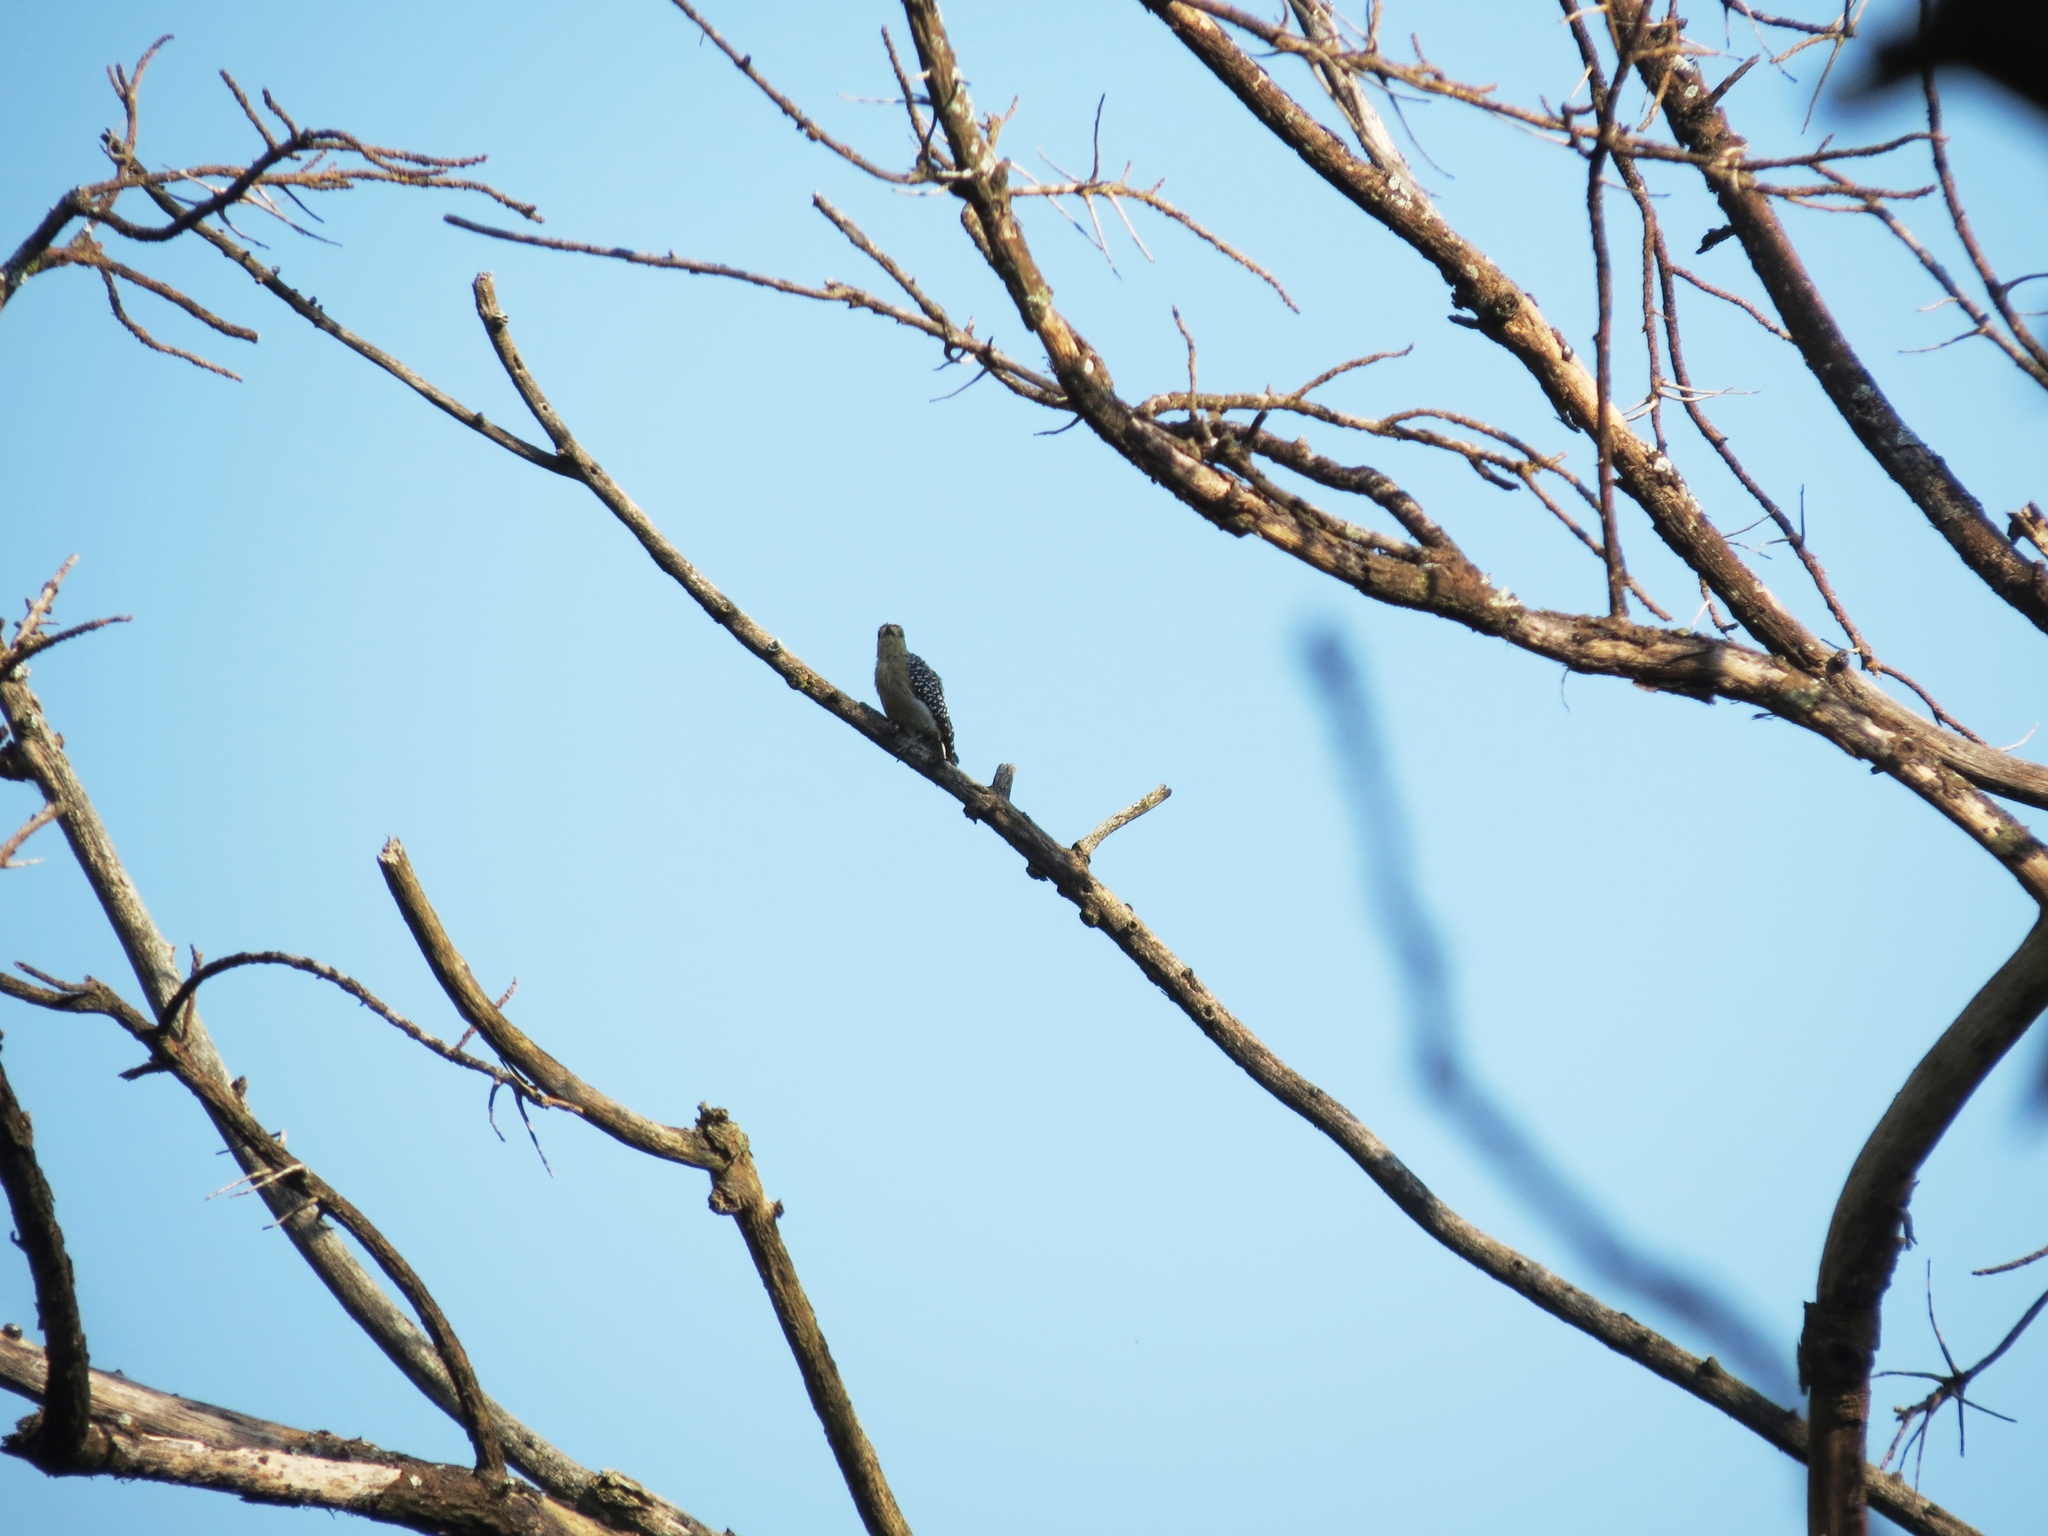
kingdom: Animalia
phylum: Chordata
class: Aves
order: Piciformes
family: Picidae
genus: Melanerpes
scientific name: Melanerpes rubricapillus
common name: Red-crowned woodpecker
